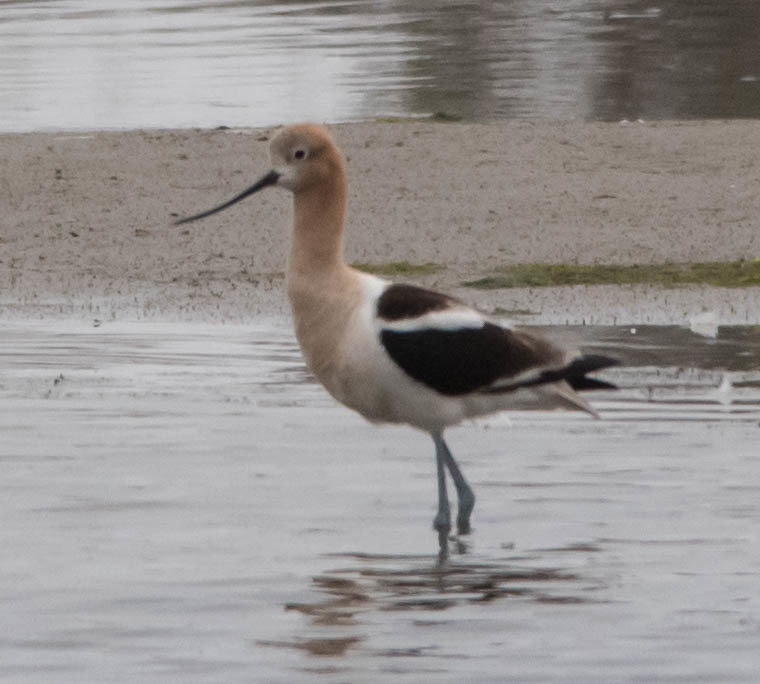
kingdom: Animalia
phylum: Chordata
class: Aves
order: Charadriiformes
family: Recurvirostridae
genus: Recurvirostra
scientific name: Recurvirostra americana
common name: American avocet
